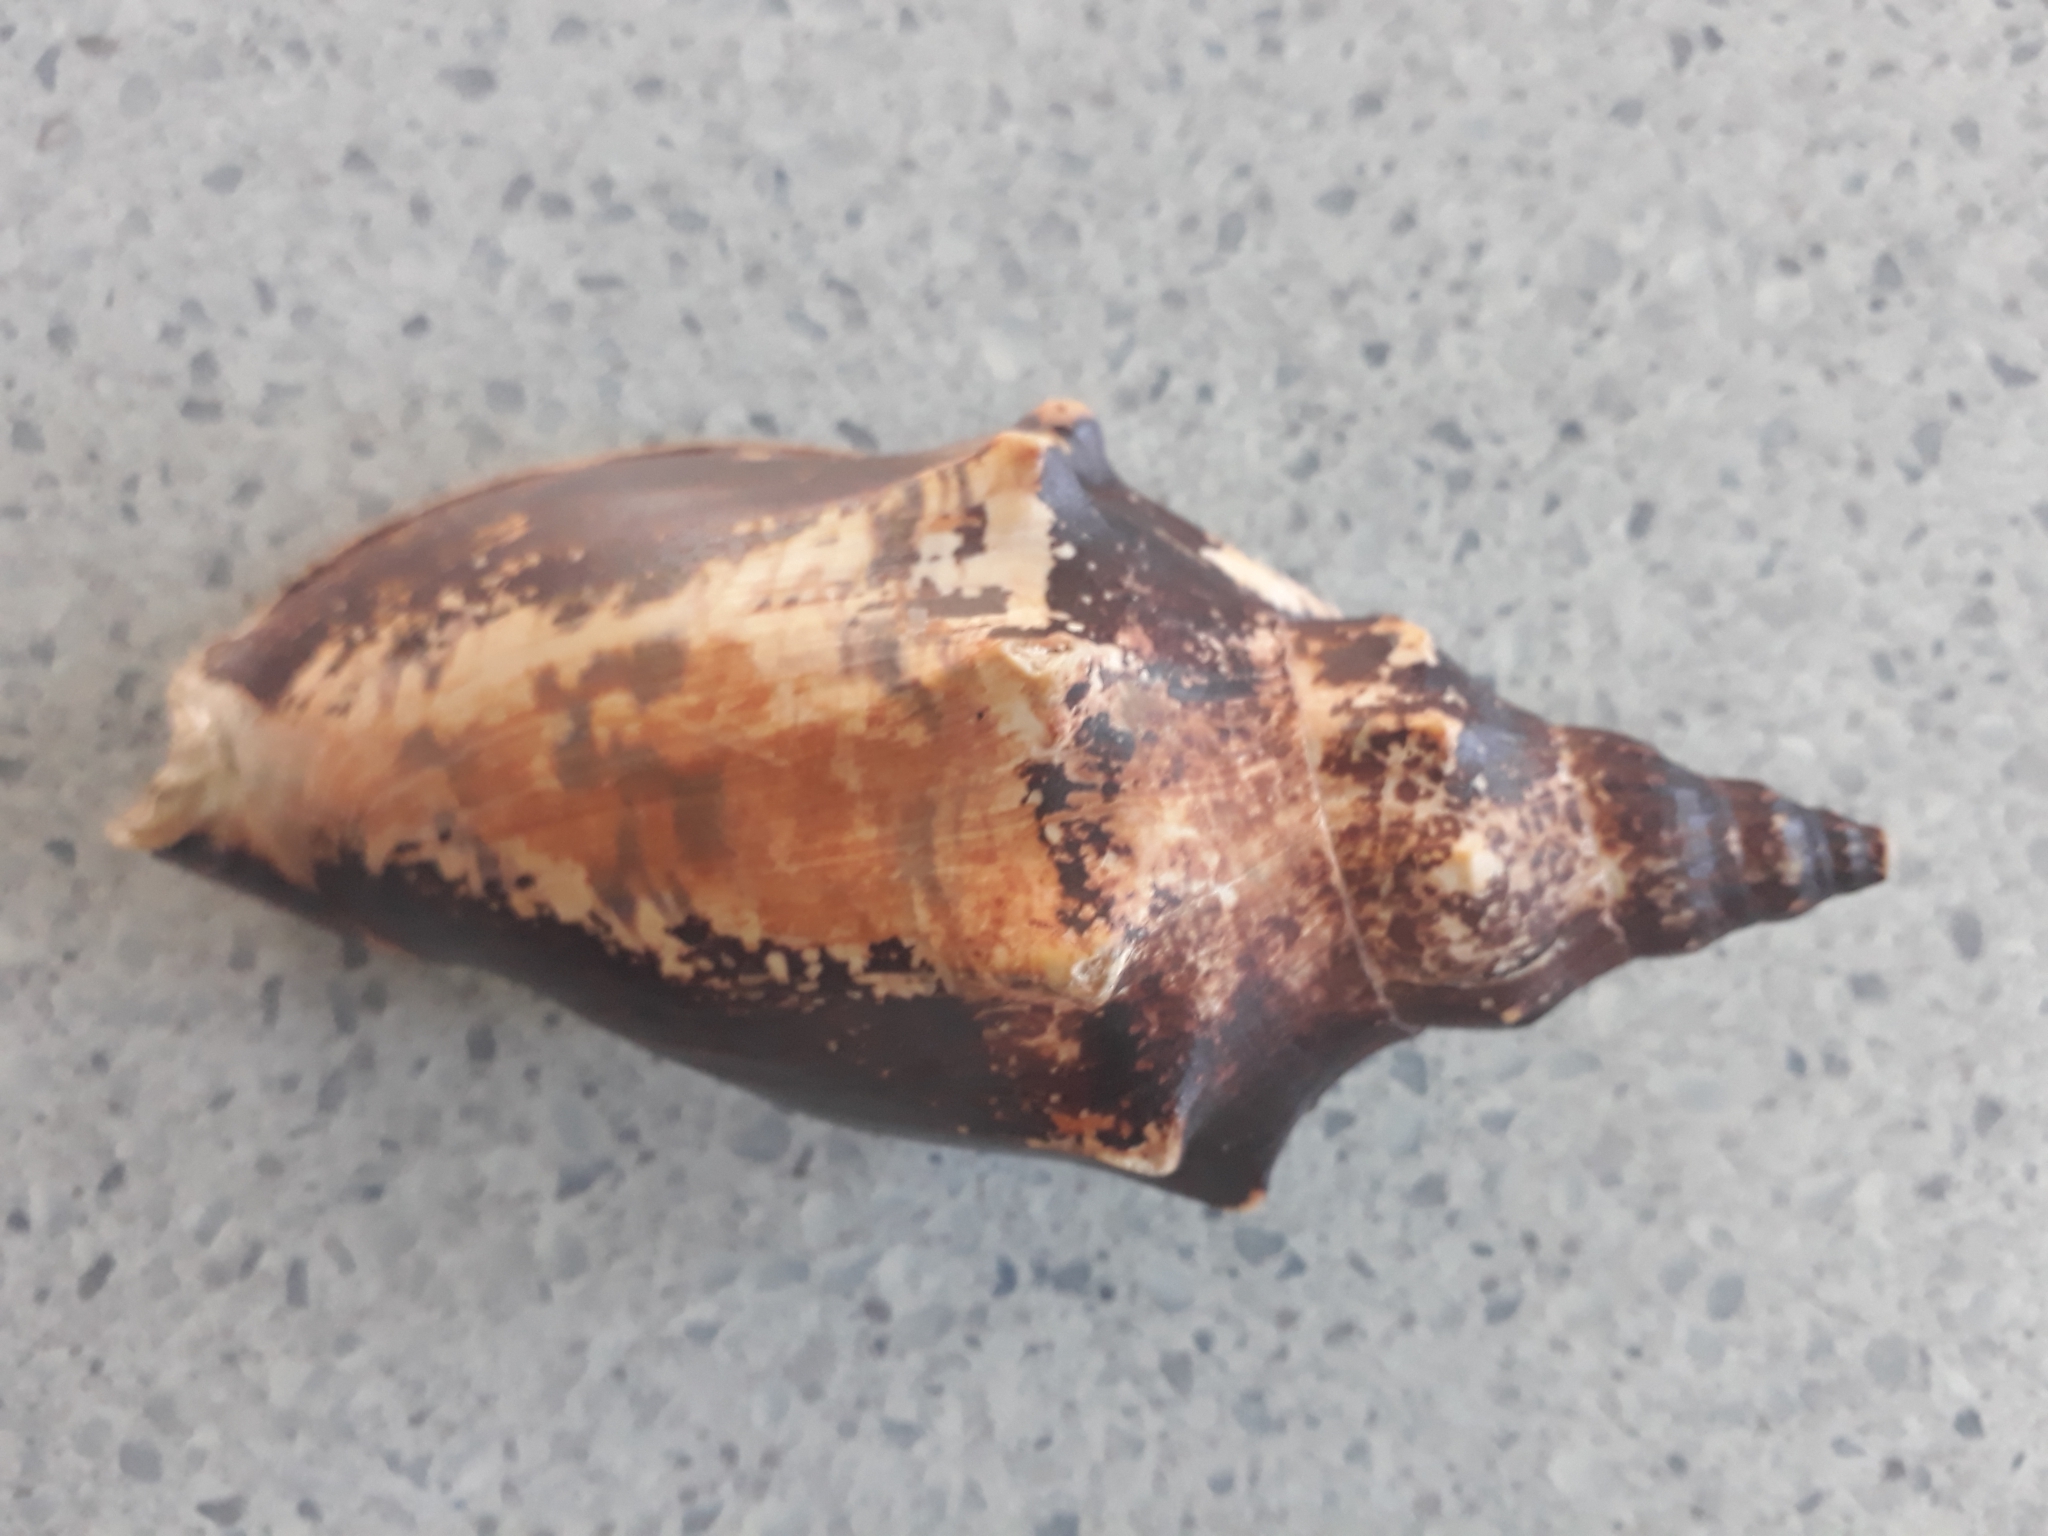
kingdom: Animalia
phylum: Mollusca
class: Gastropoda
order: Neogastropoda
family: Volutidae
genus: Alcithoe
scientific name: Alcithoe arabica
